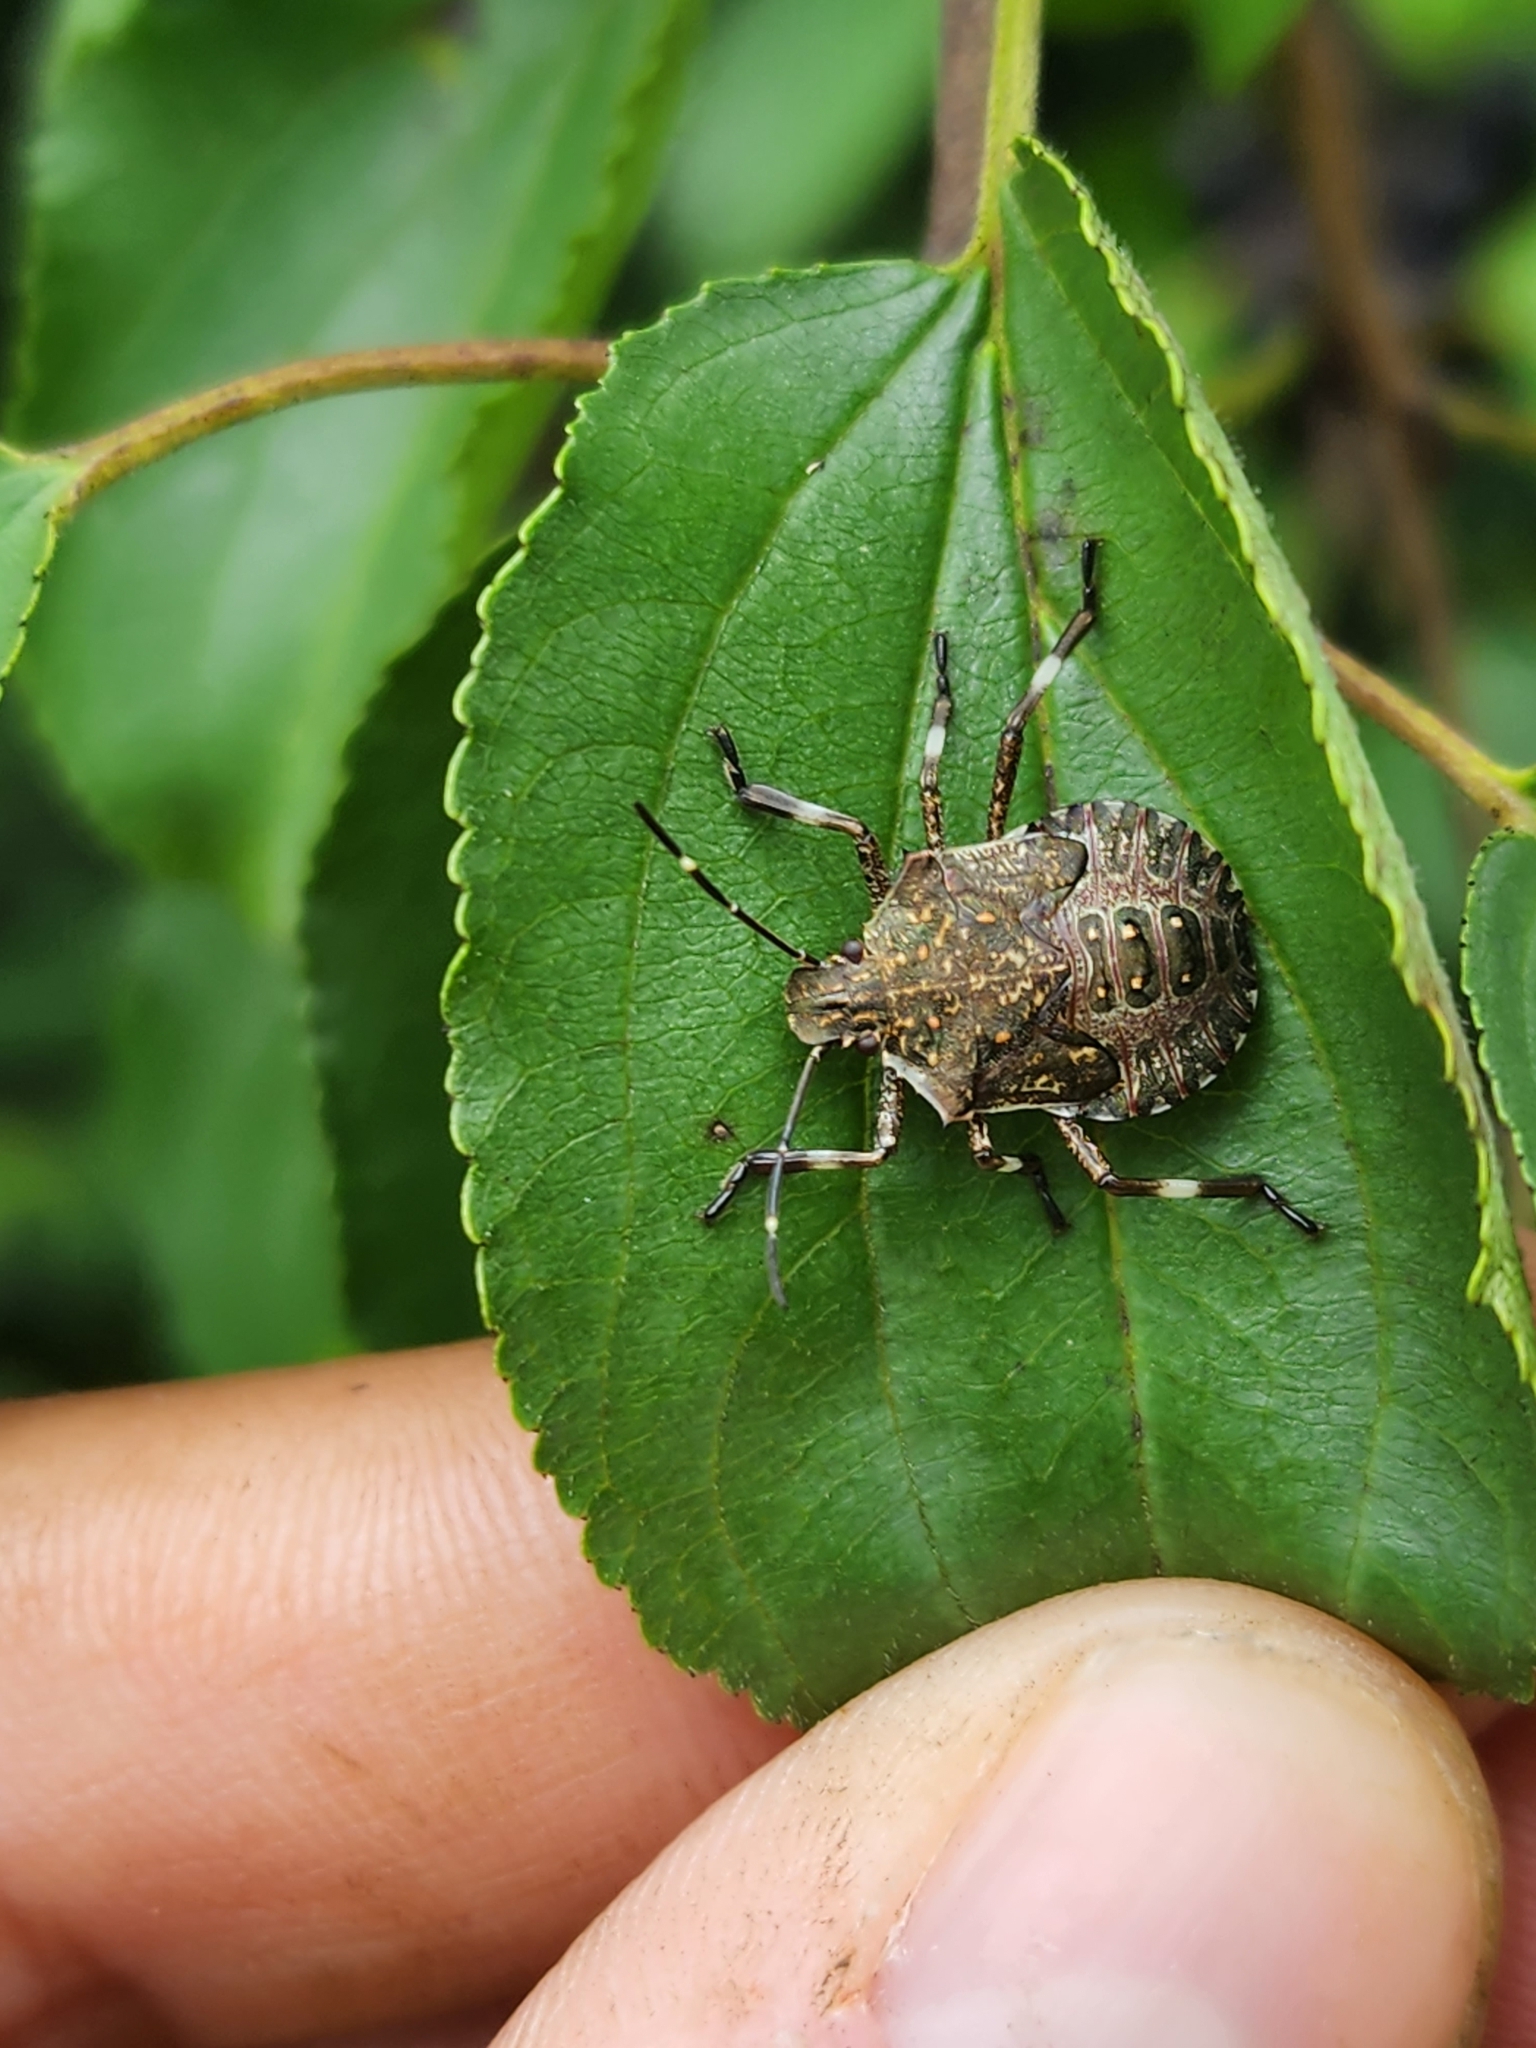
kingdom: Animalia
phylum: Arthropoda
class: Insecta
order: Hemiptera
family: Pentatomidae
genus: Halyomorpha
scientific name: Halyomorpha halys
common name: Brown marmorated stink bug
